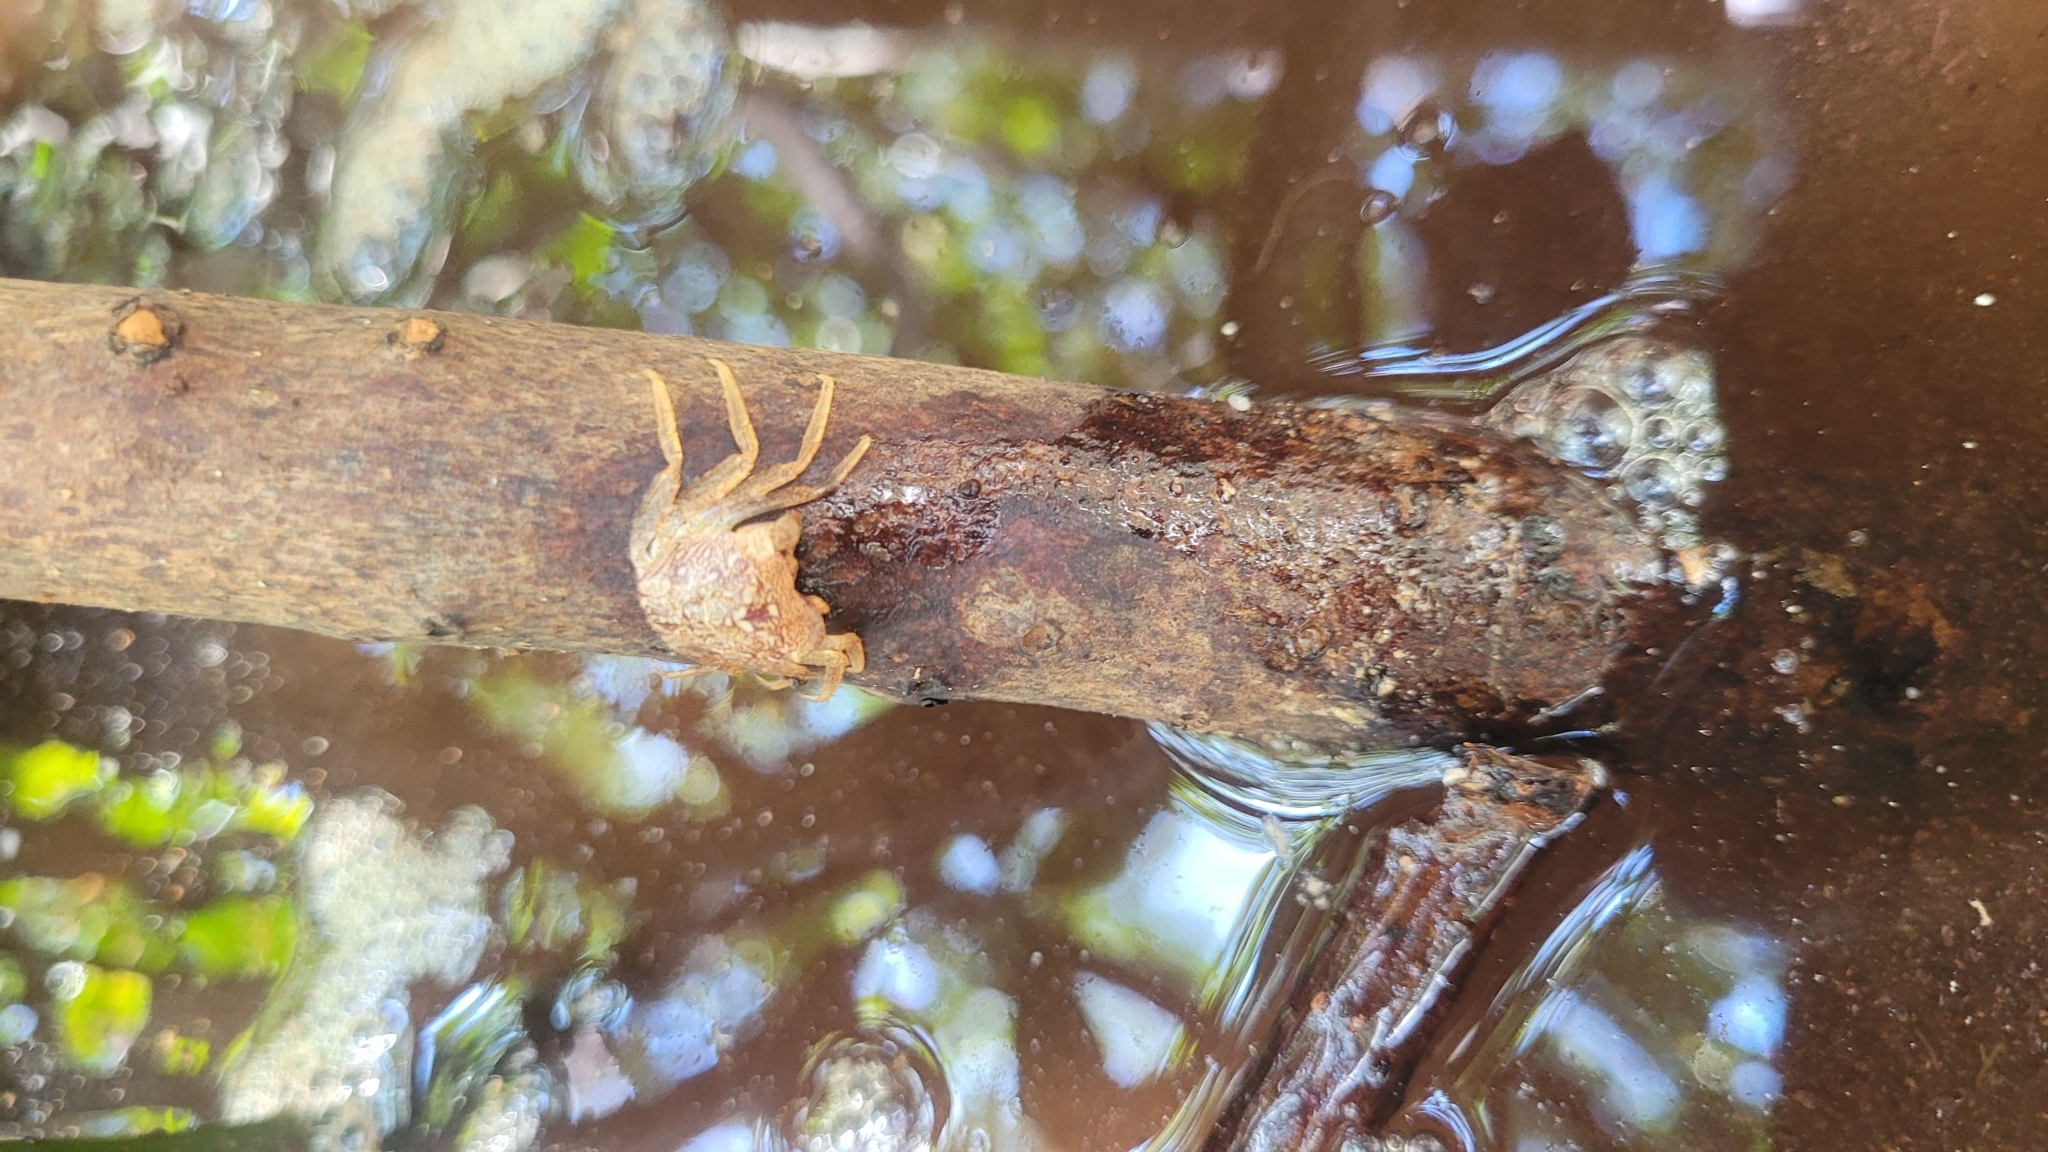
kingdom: Animalia
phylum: Arthropoda
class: Malacostraca
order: Decapoda
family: Sesarmidae
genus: Aratus
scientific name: Aratus pisonii
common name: Mangrove crab
